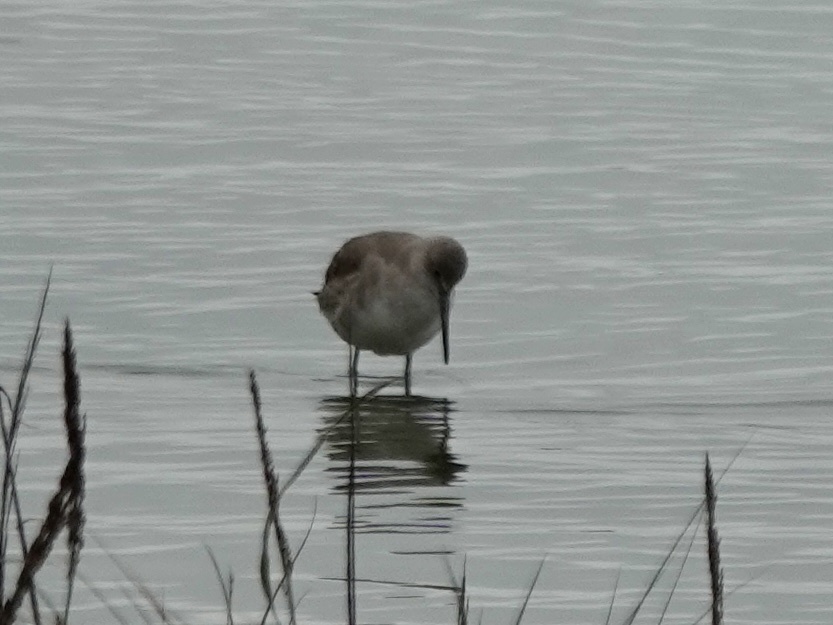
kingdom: Animalia
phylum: Chordata
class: Aves
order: Charadriiformes
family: Scolopacidae
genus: Tringa
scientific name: Tringa semipalmata
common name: Willet
